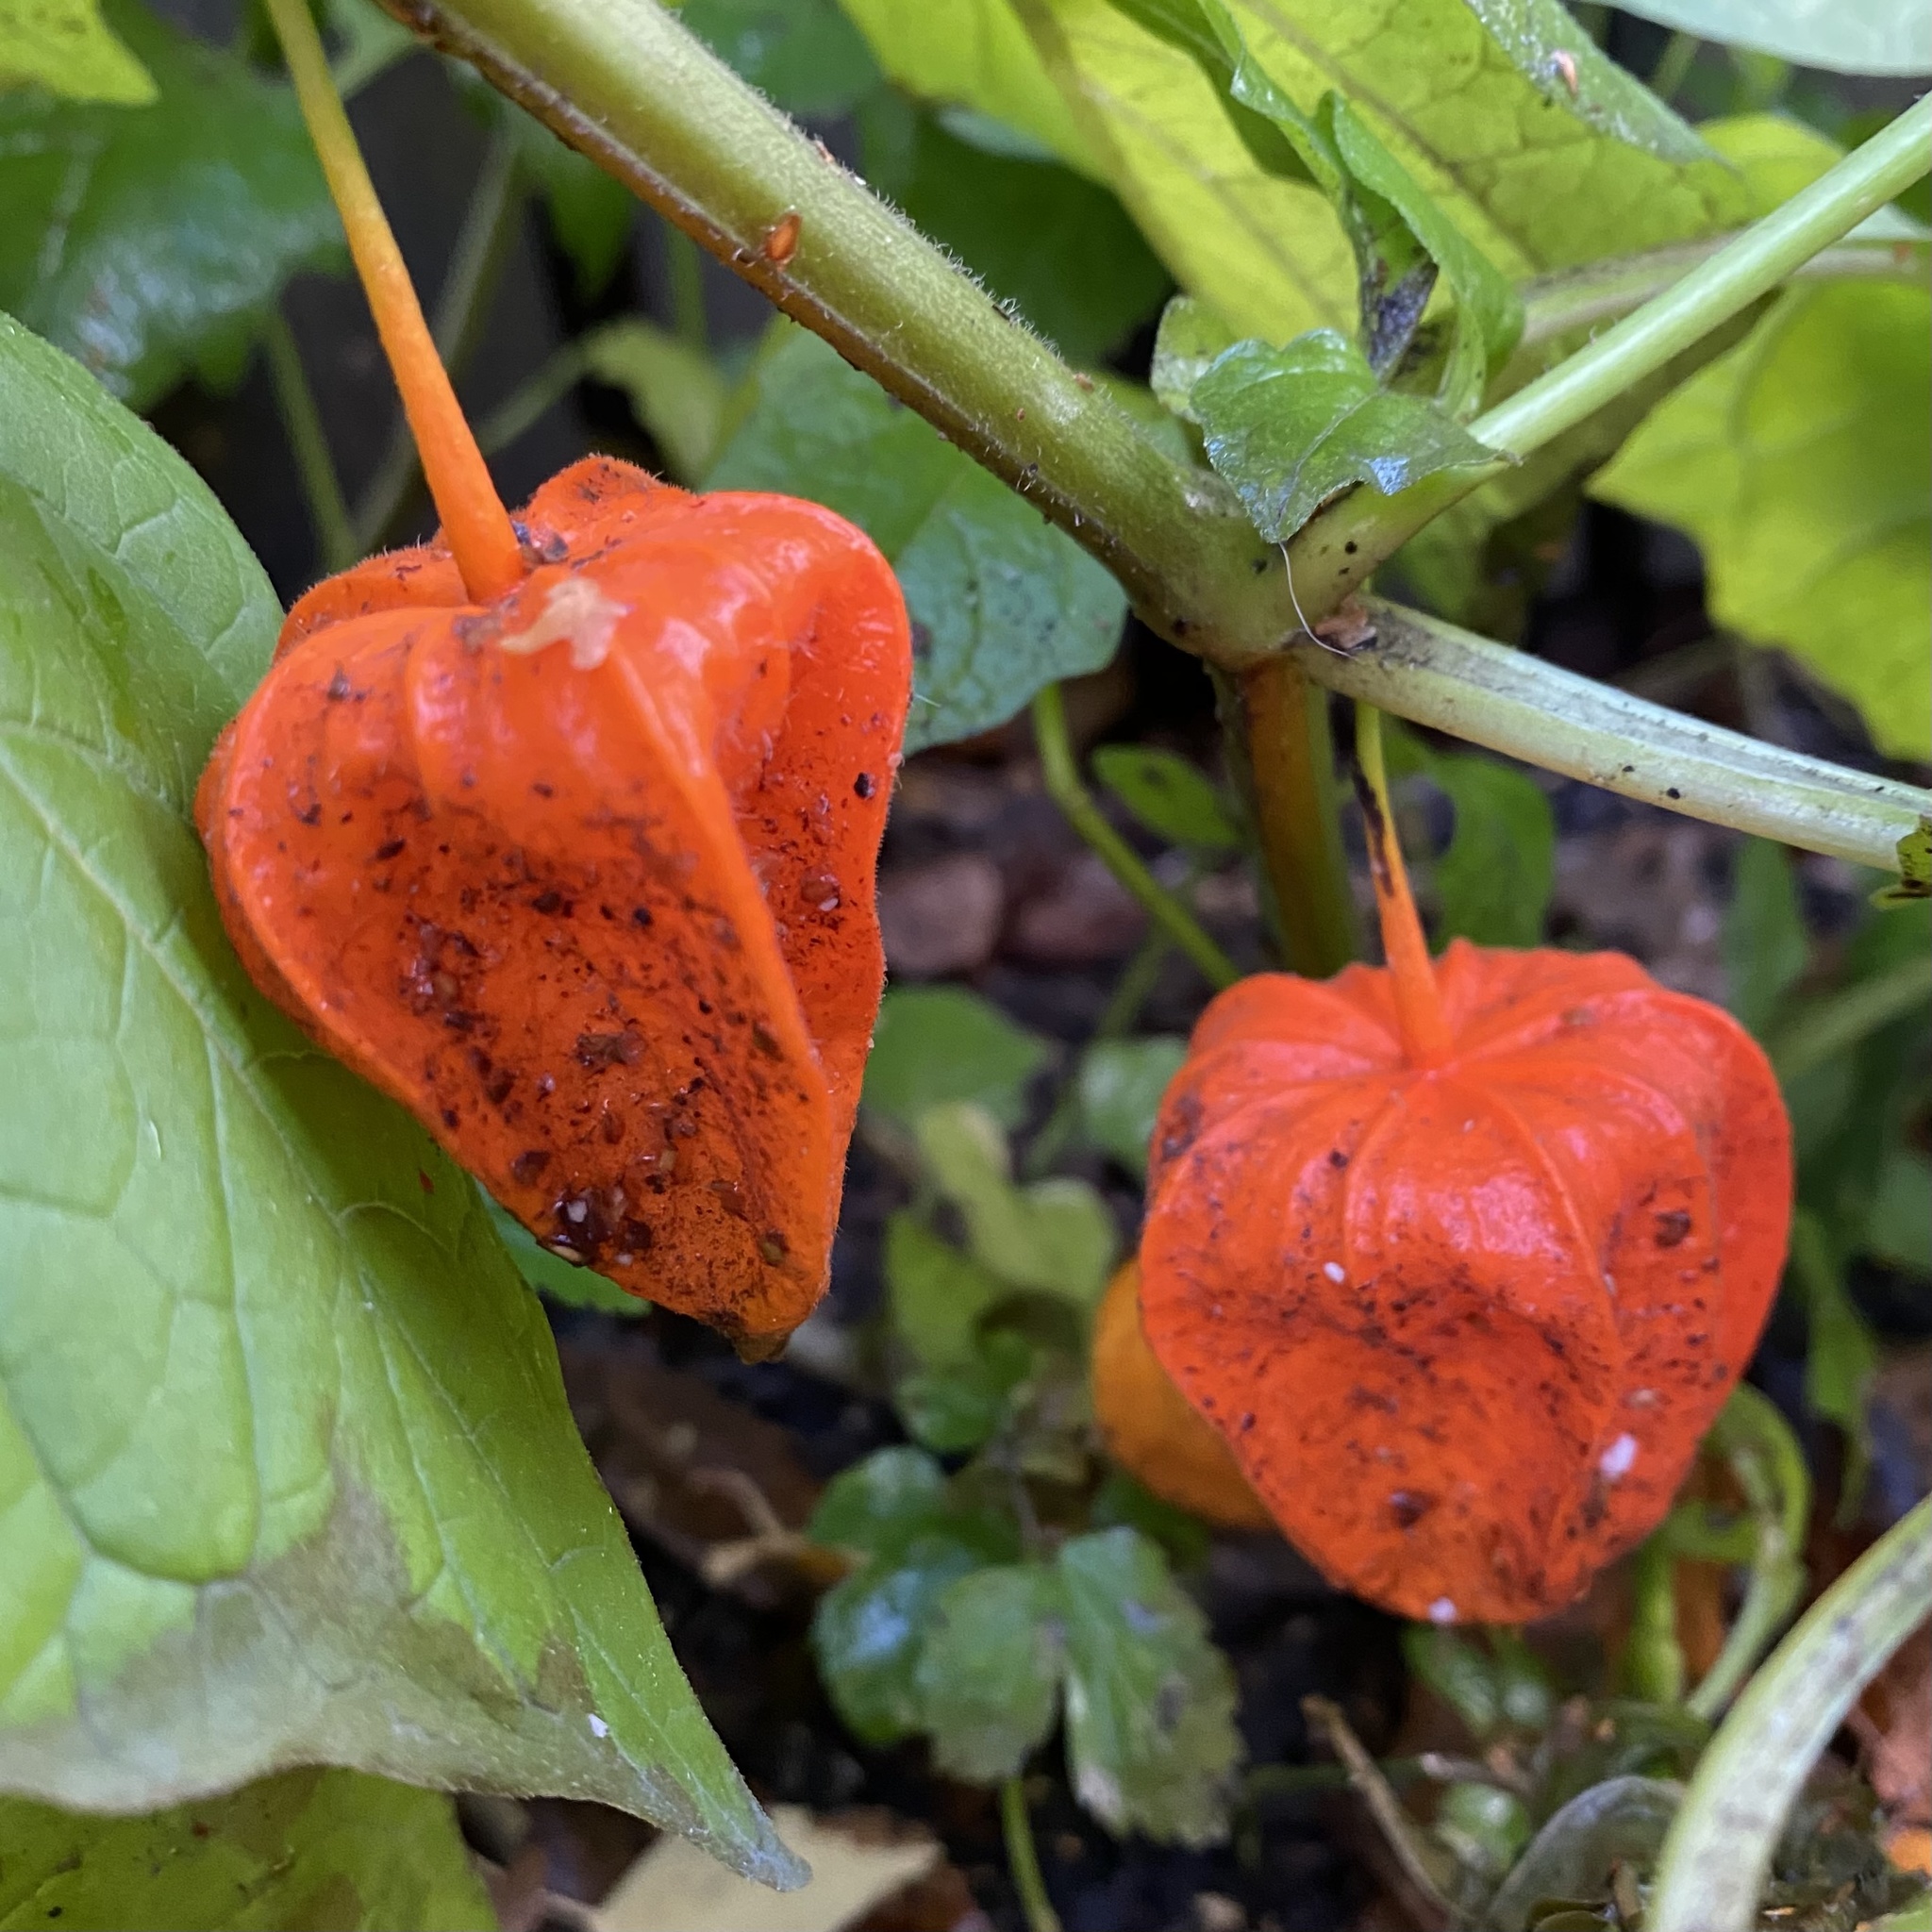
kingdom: Plantae
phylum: Tracheophyta
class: Magnoliopsida
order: Solanales
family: Solanaceae
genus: Alkekengi
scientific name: Alkekengi officinarum
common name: Japanese-lantern
